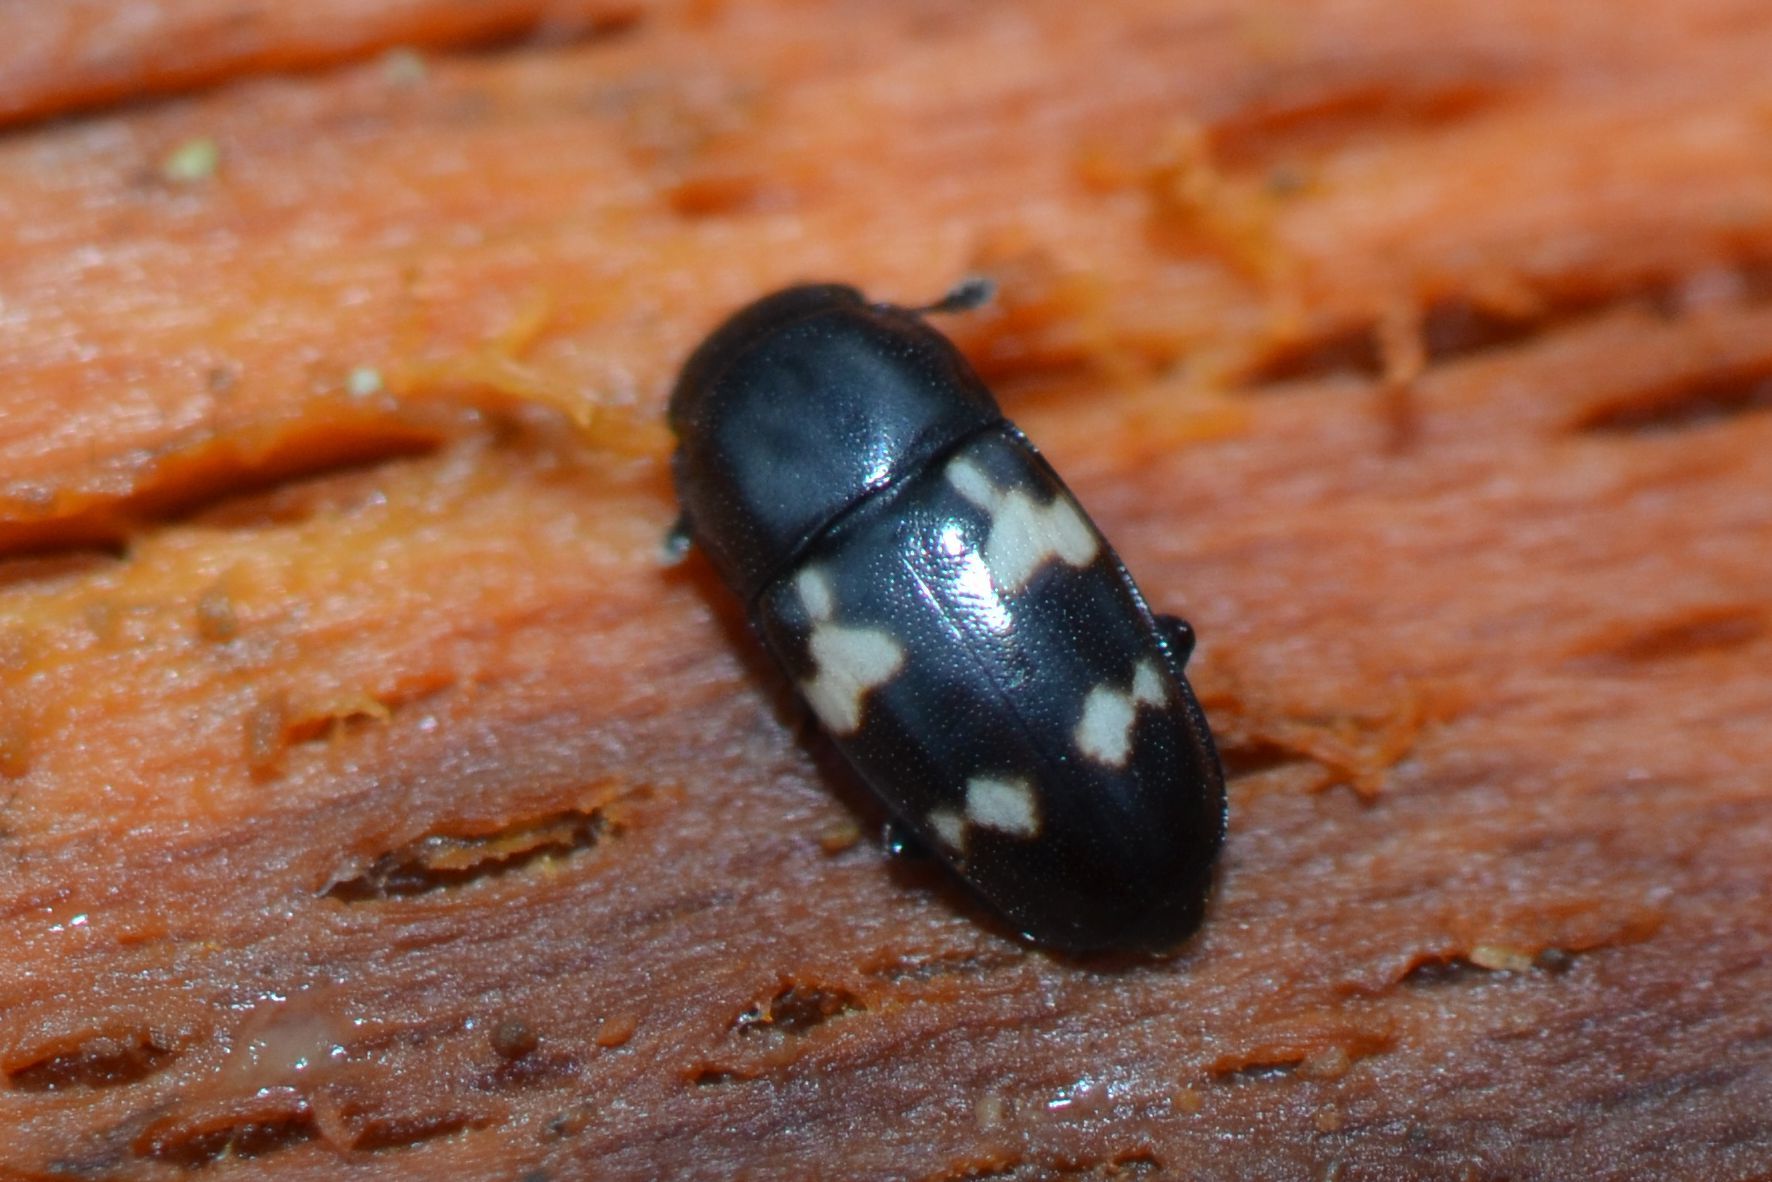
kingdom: Animalia
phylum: Arthropoda
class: Insecta
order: Coleoptera
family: Nitidulidae
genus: Glischrochilus
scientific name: Glischrochilus quadriguttatus
